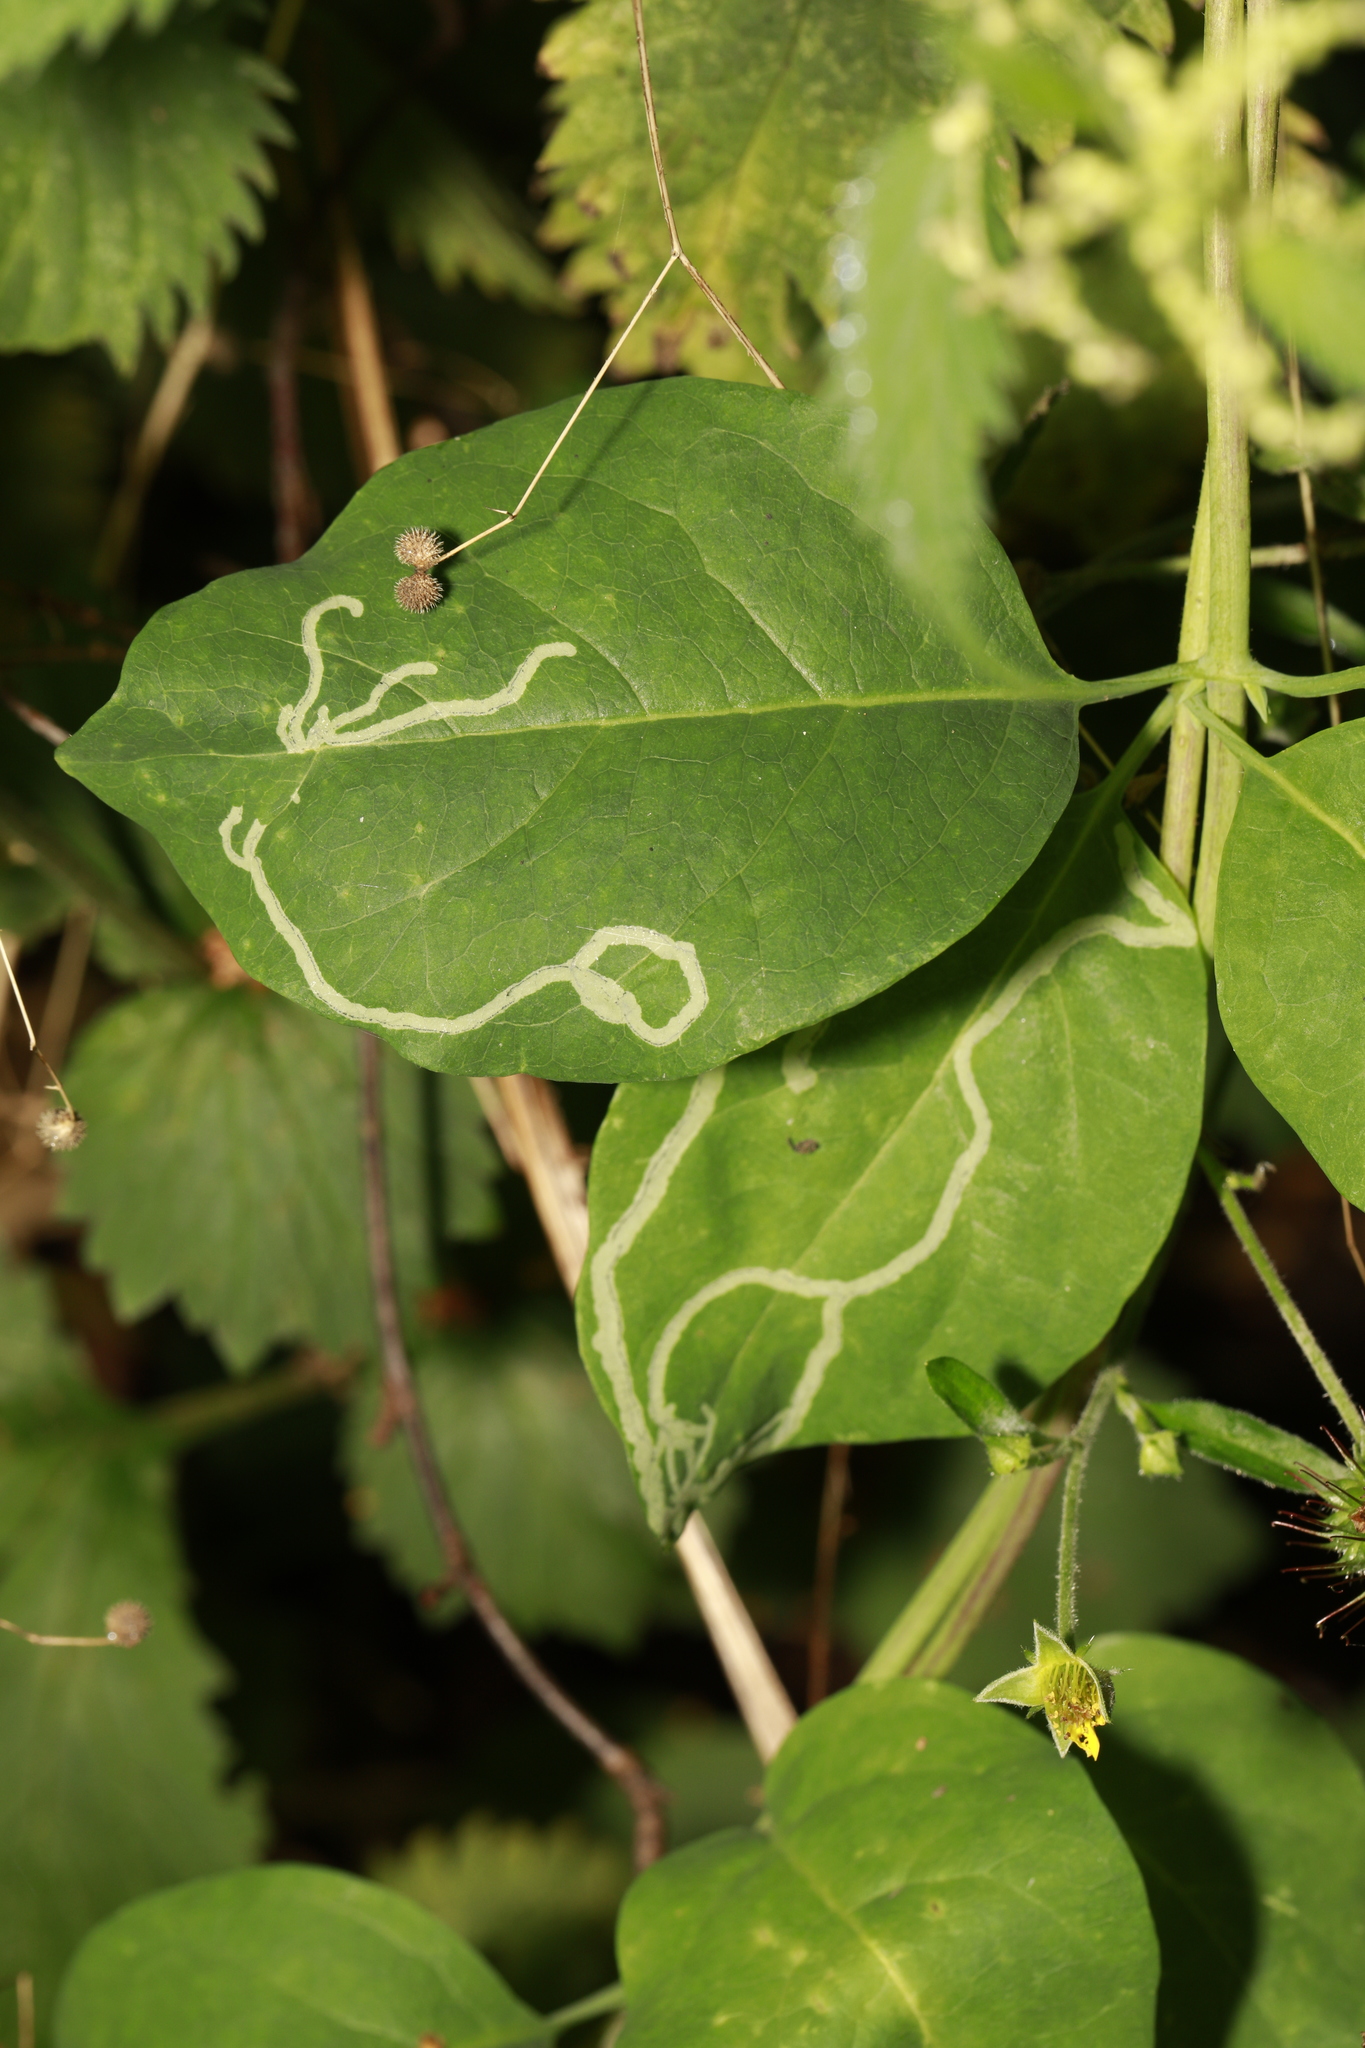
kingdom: Animalia
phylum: Arthropoda
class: Insecta
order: Diptera
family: Agromyzidae
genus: Phytomyza
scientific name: Phytomyza lonicerae
